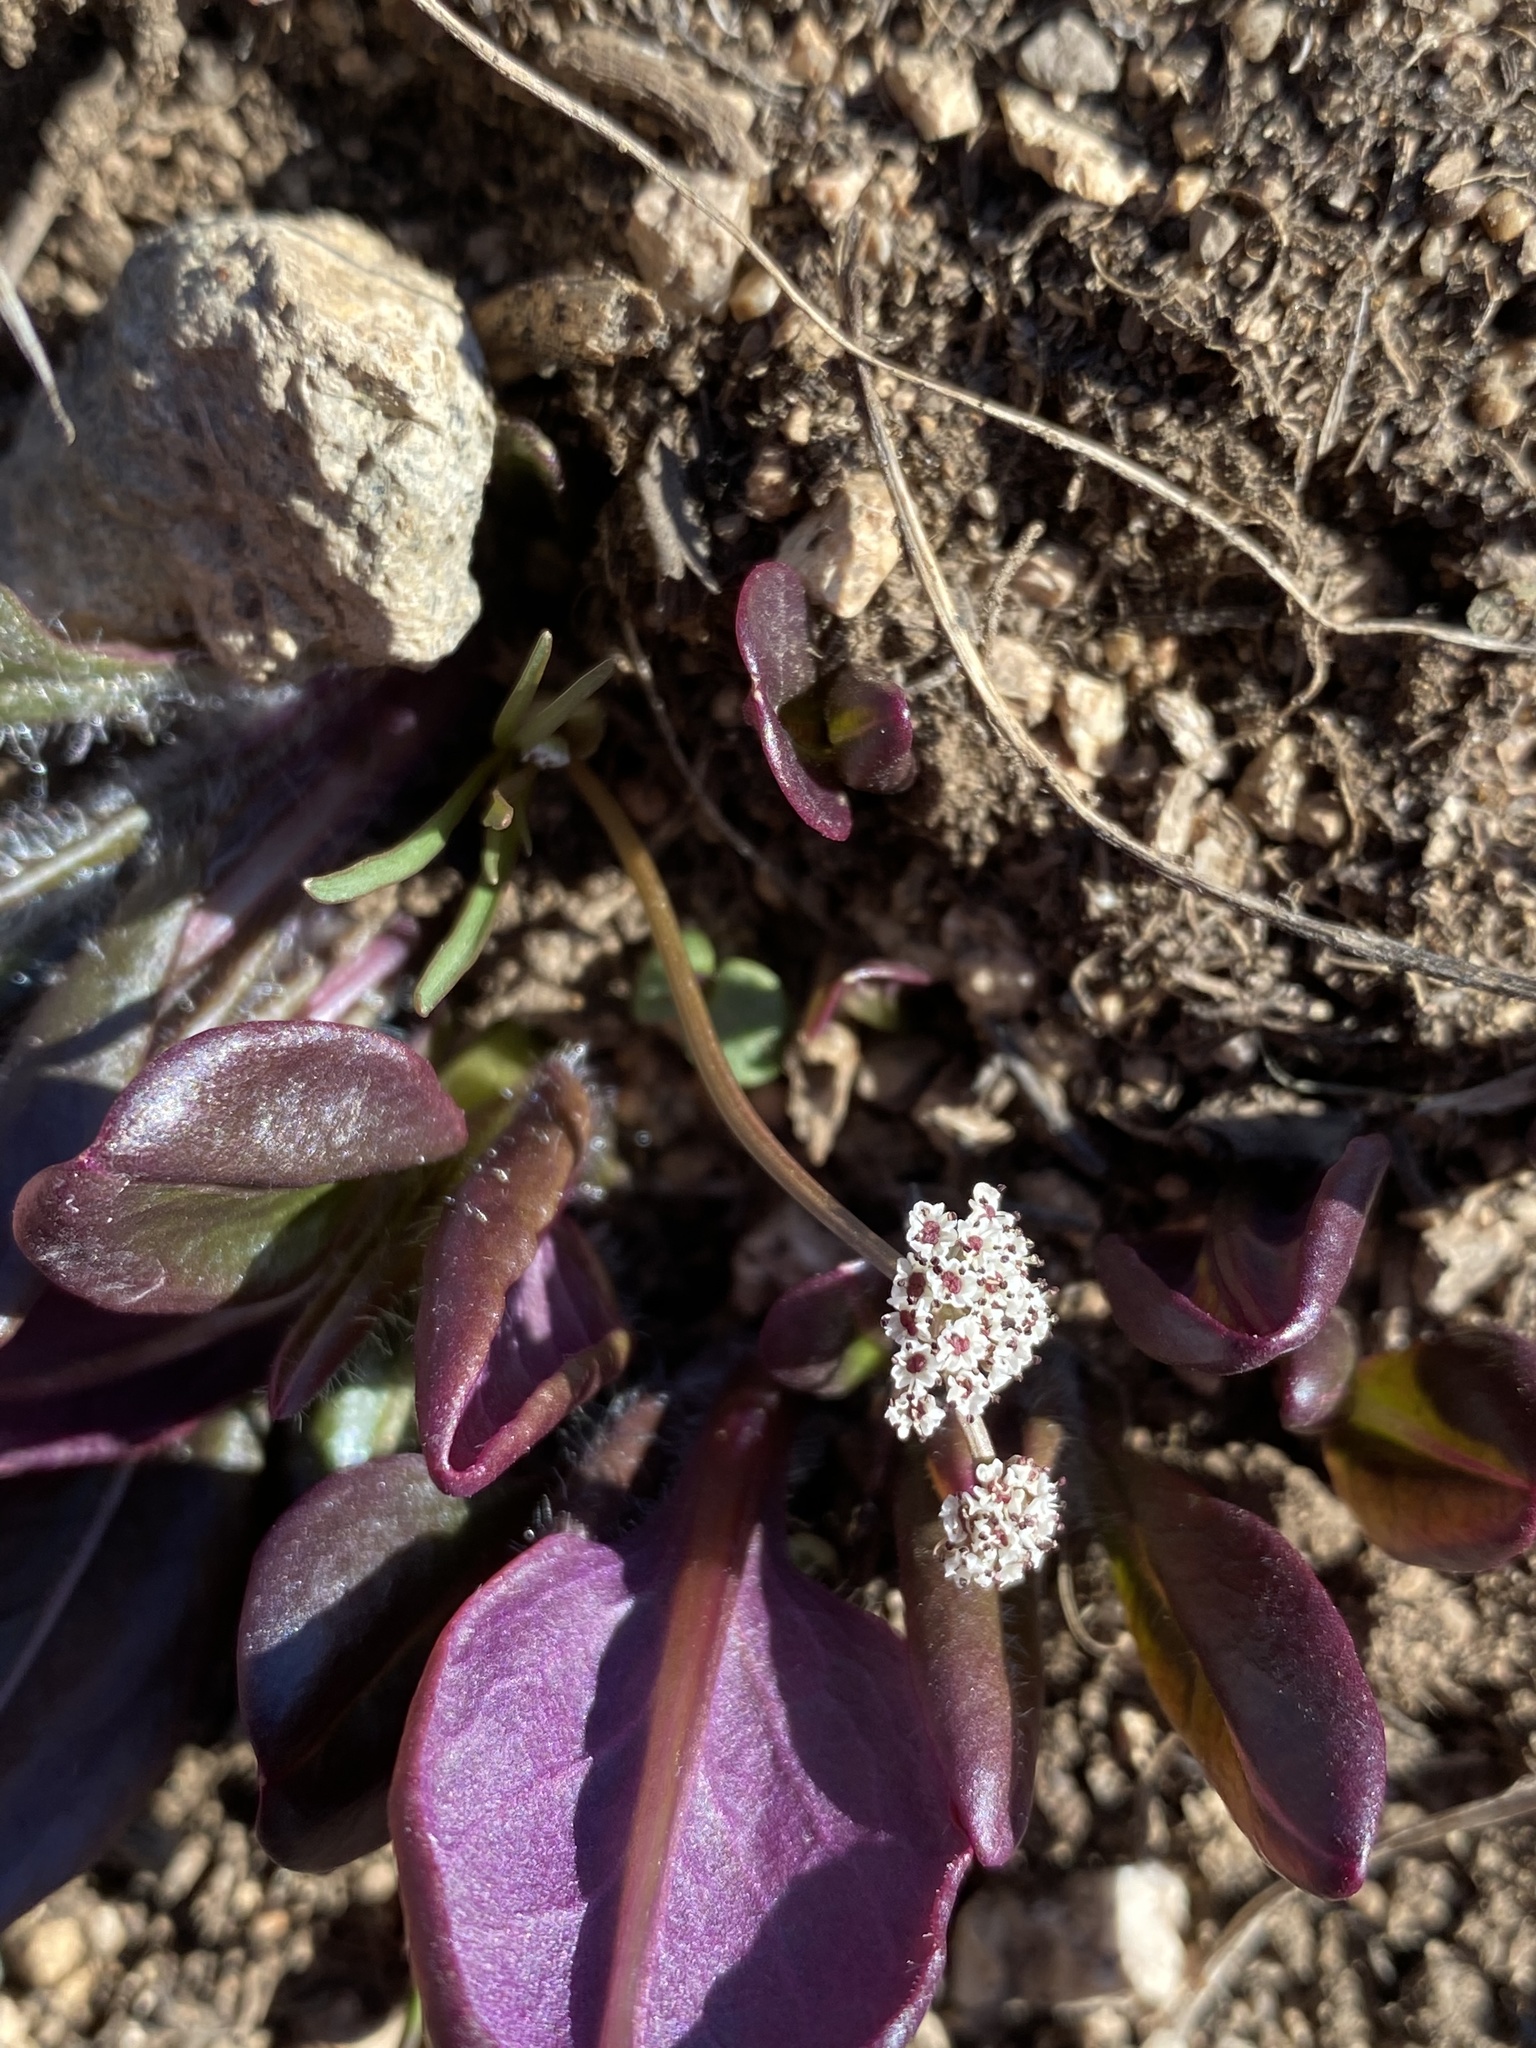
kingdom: Plantae
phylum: Tracheophyta
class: Magnoliopsida
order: Apiales
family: Apiaceae
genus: Lomatium
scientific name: Lomatium linearifolium
